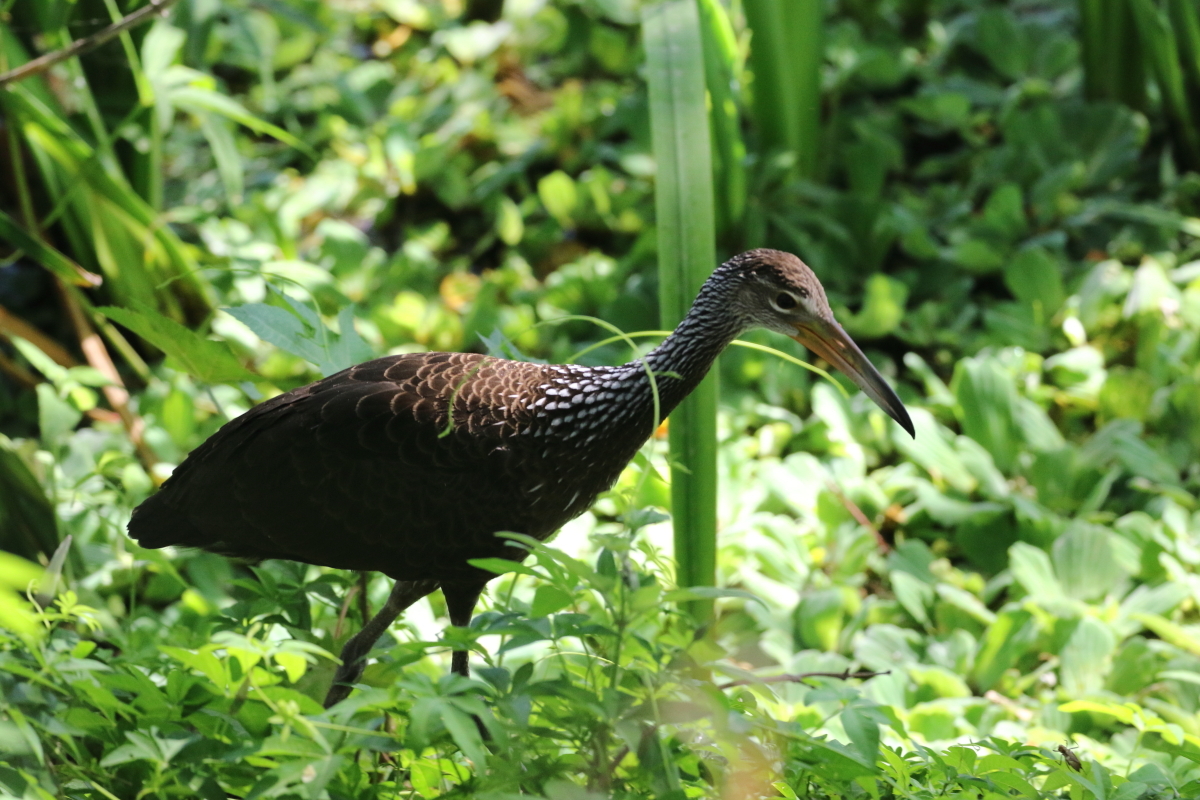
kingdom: Animalia
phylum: Chordata
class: Aves
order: Gruiformes
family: Aramidae
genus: Aramus
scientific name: Aramus guarauna
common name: Limpkin
